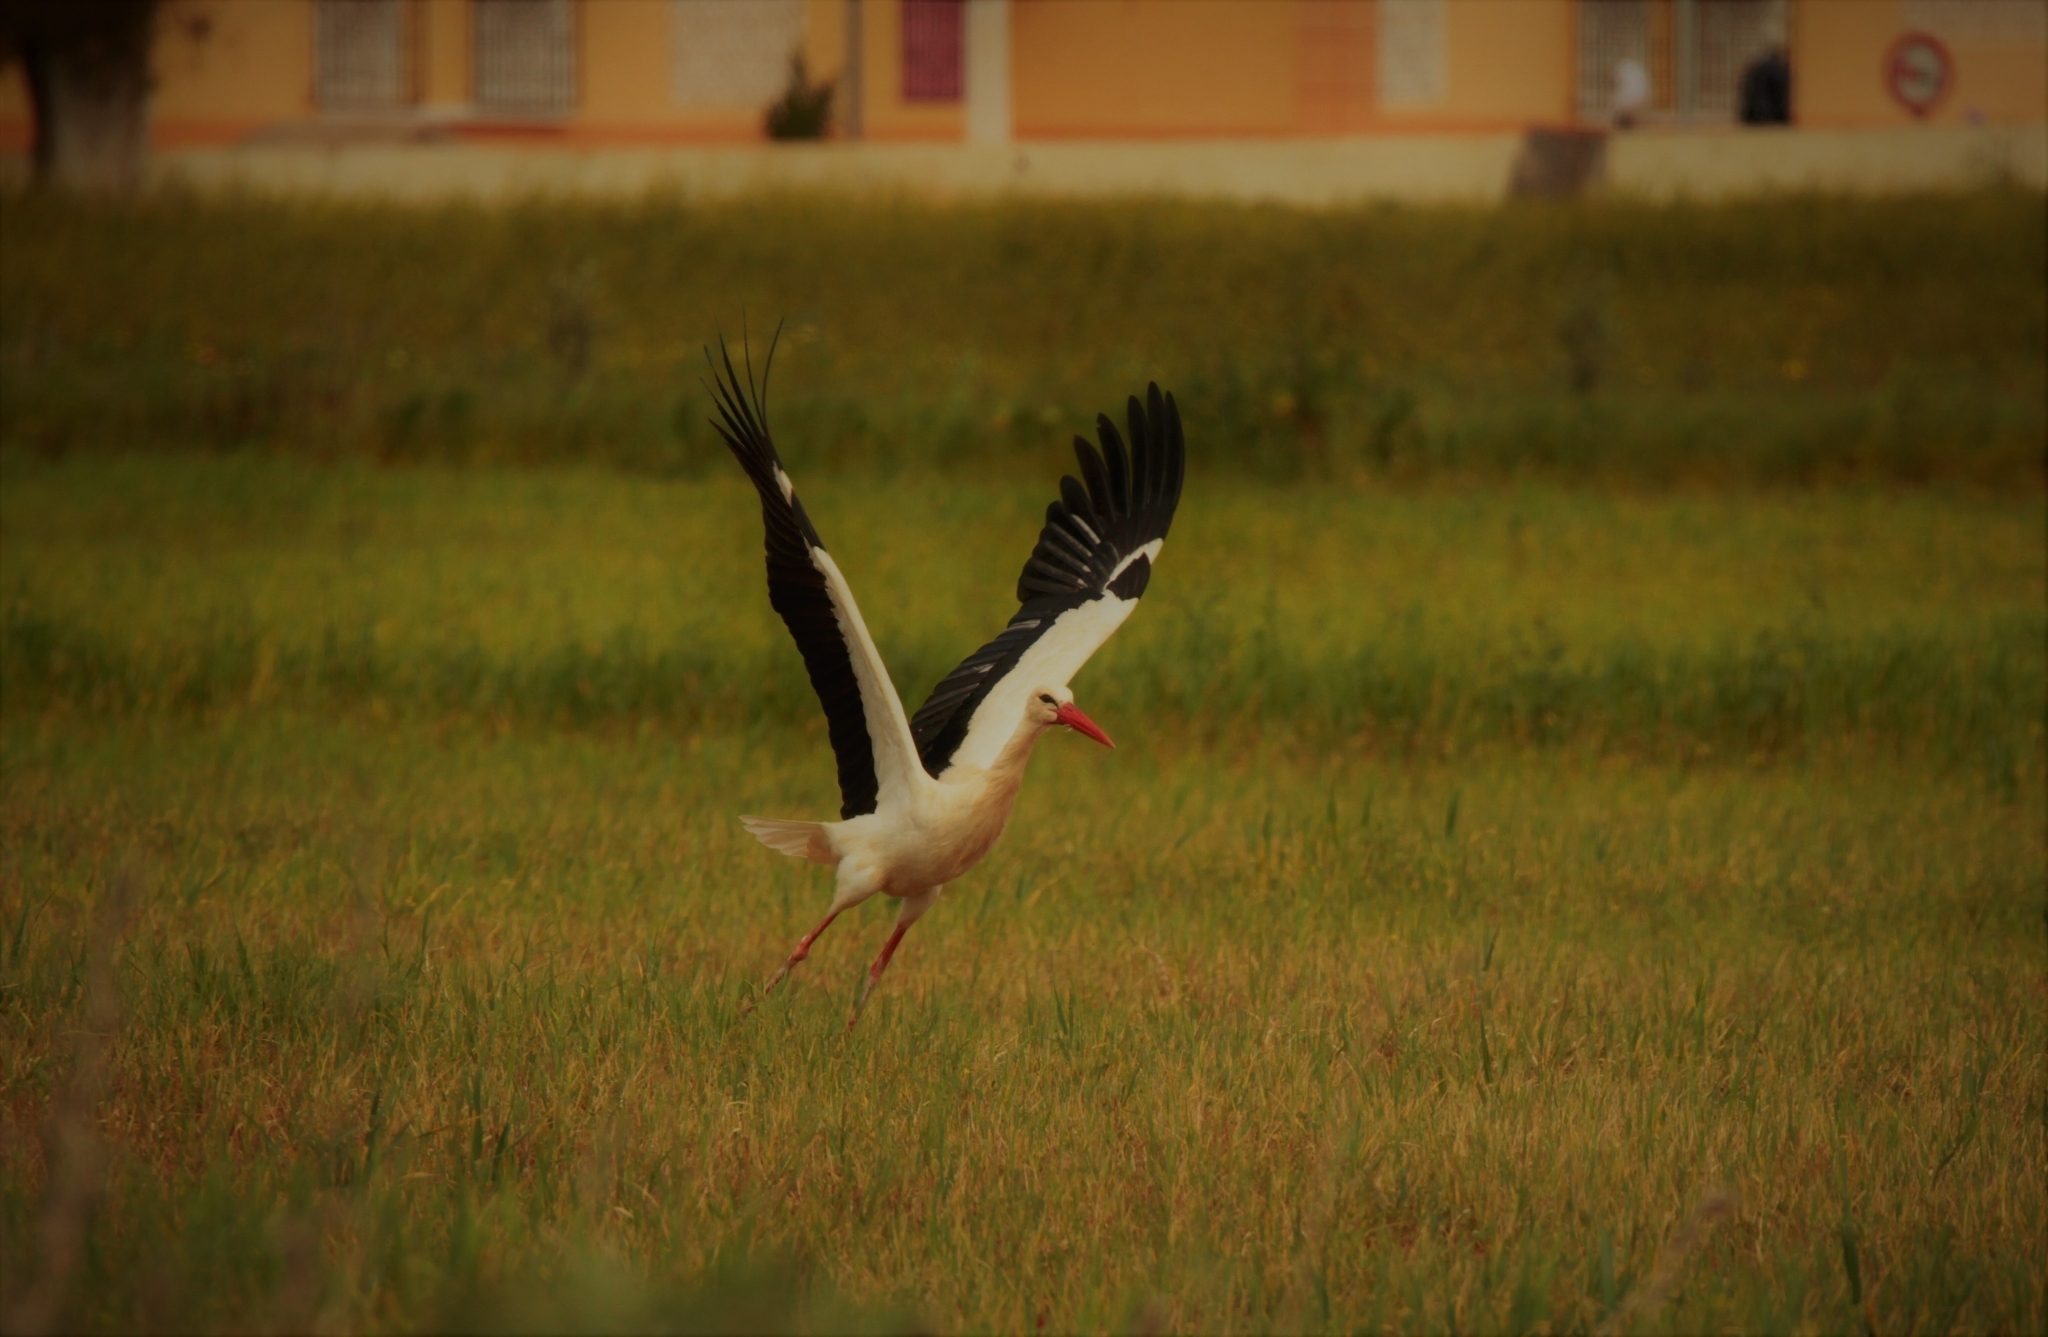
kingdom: Animalia
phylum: Chordata
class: Aves
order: Ciconiiformes
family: Ciconiidae
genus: Ciconia
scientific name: Ciconia ciconia
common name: White stork
